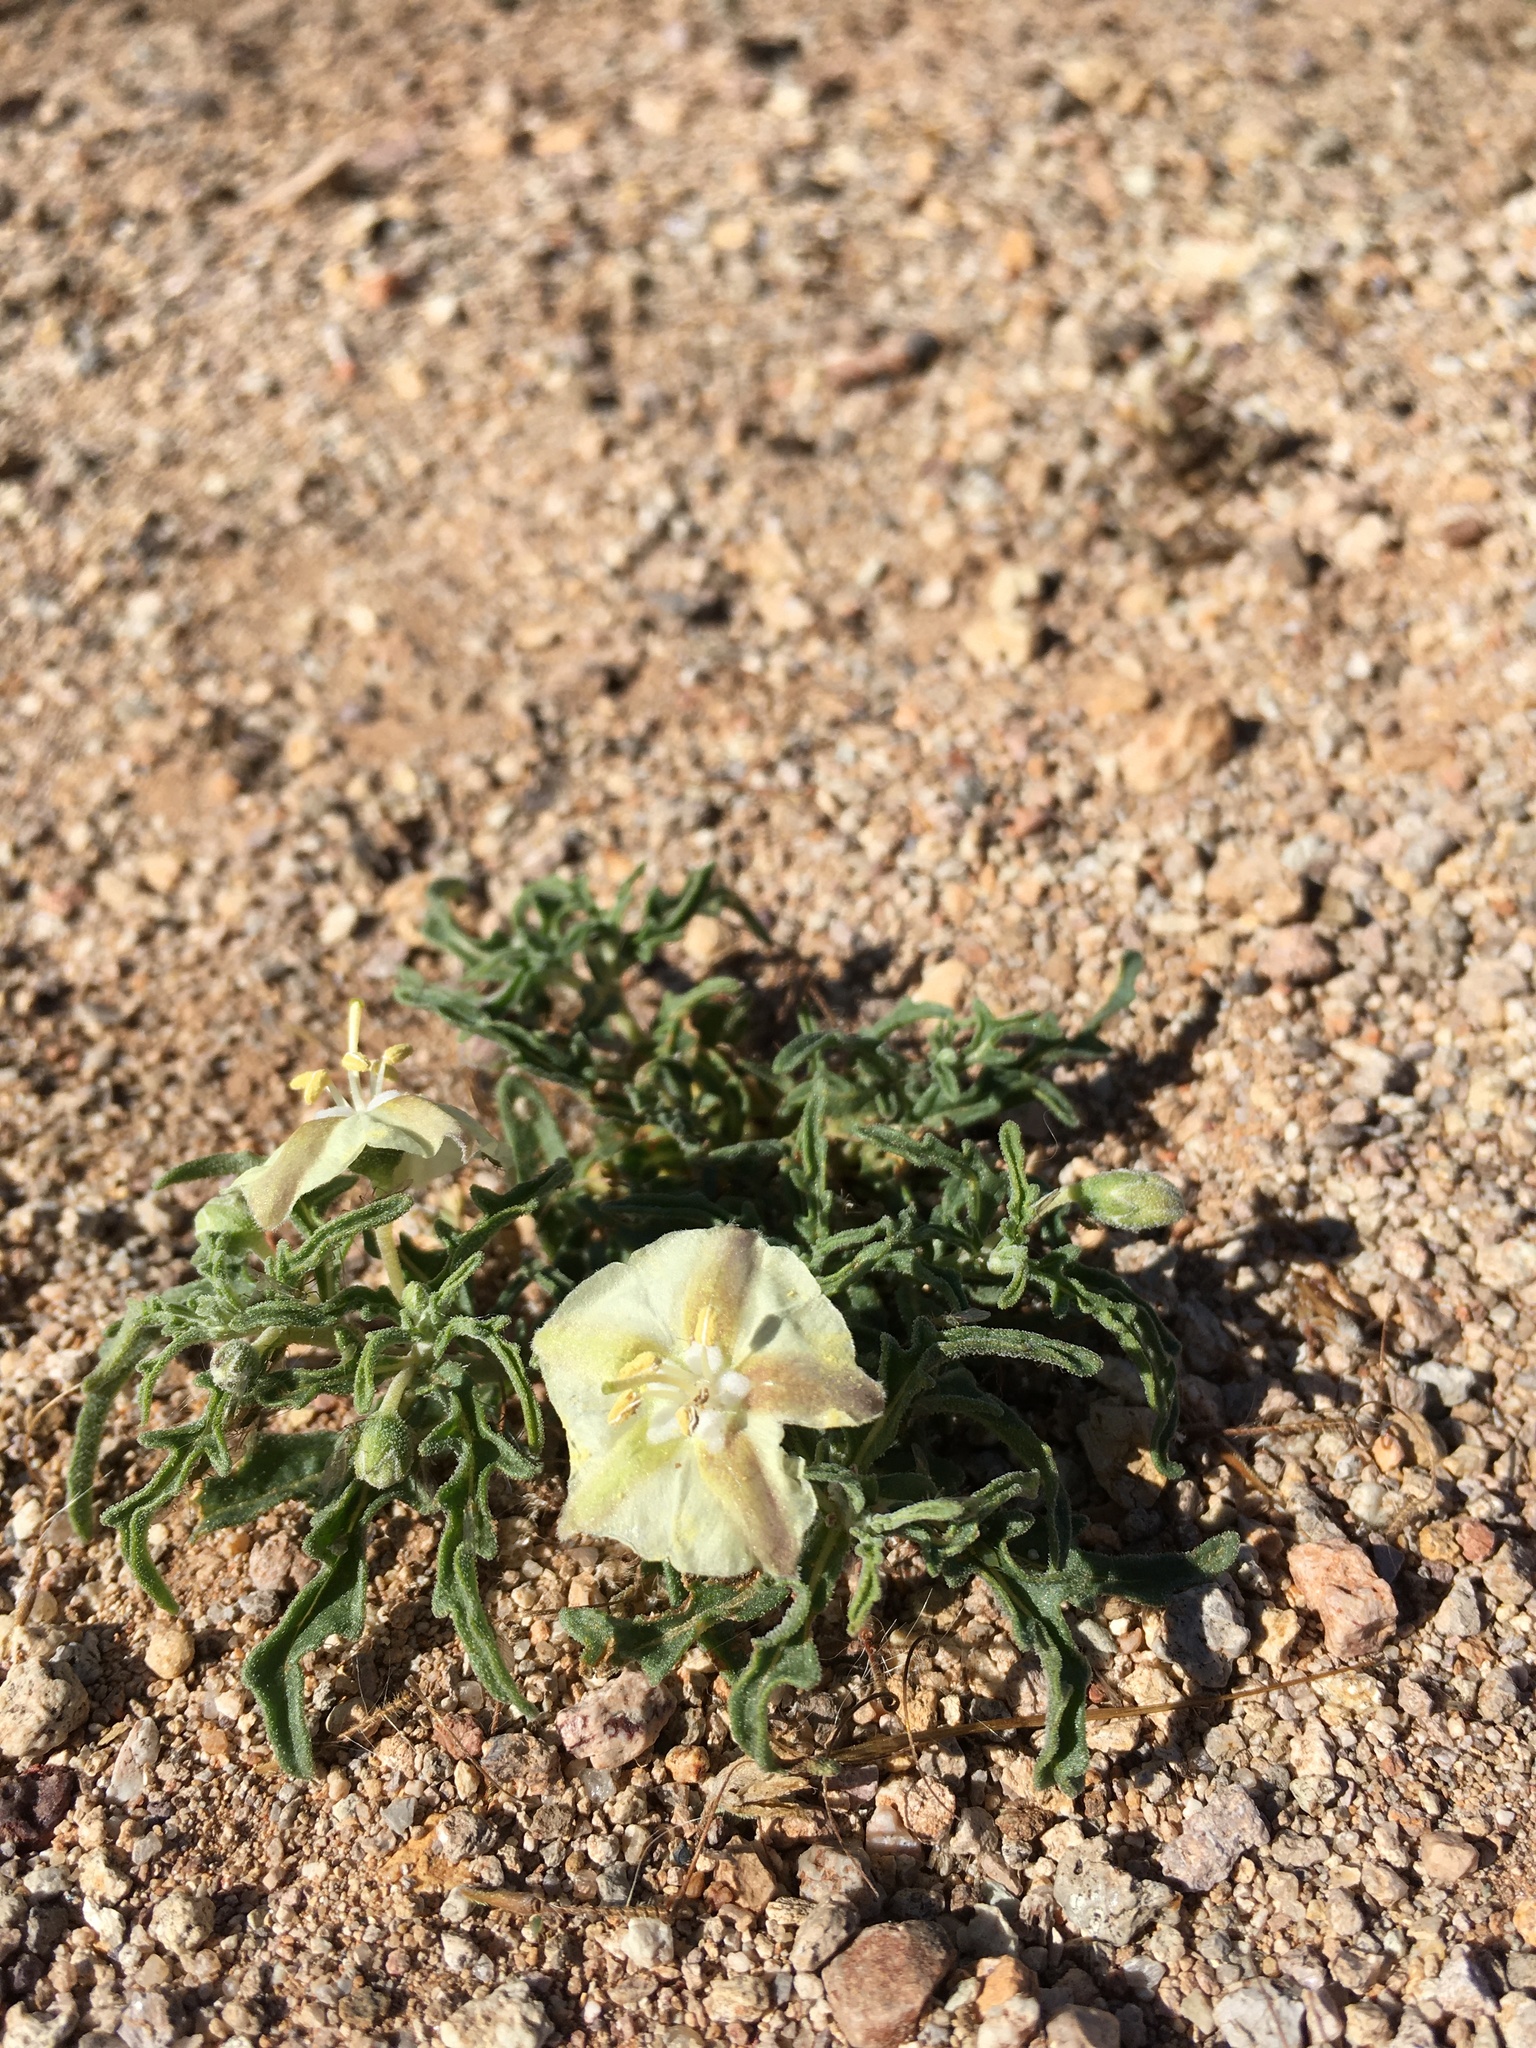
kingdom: Plantae
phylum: Tracheophyta
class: Magnoliopsida
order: Solanales
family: Solanaceae
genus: Chamaesaracha
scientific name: Chamaesaracha coronopus
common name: Smooth chamaesaracha
